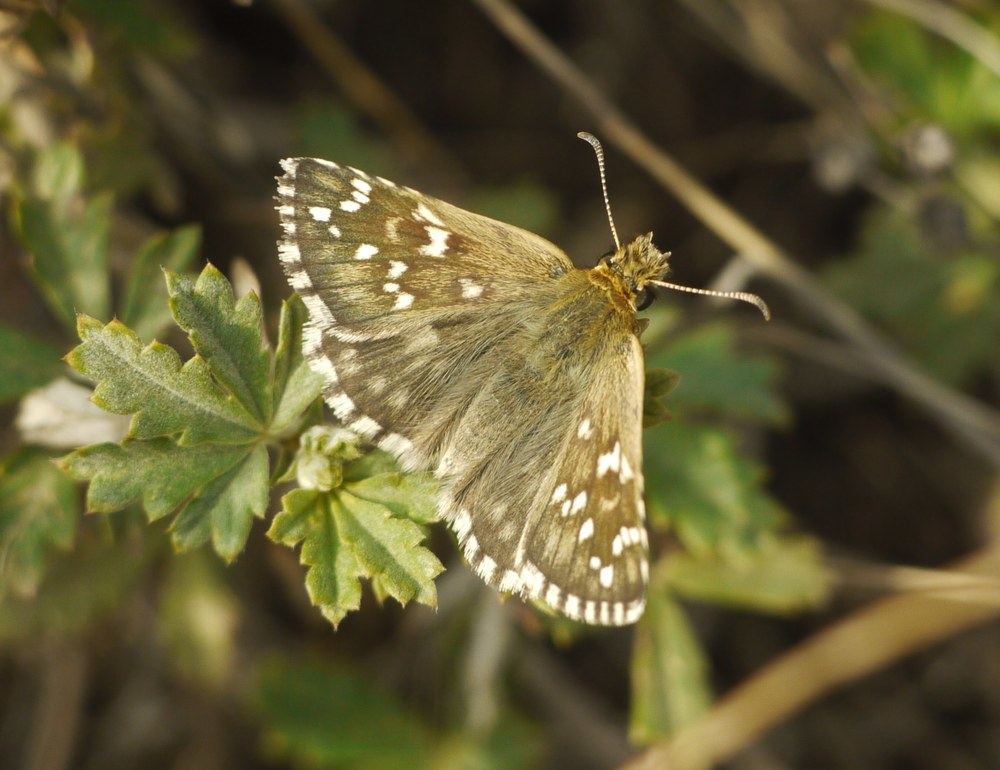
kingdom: Animalia
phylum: Arthropoda
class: Insecta
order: Lepidoptera
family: Hesperiidae
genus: Pyrgus
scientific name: Pyrgus armoricanus
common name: Oberthür's grizzled skipper
